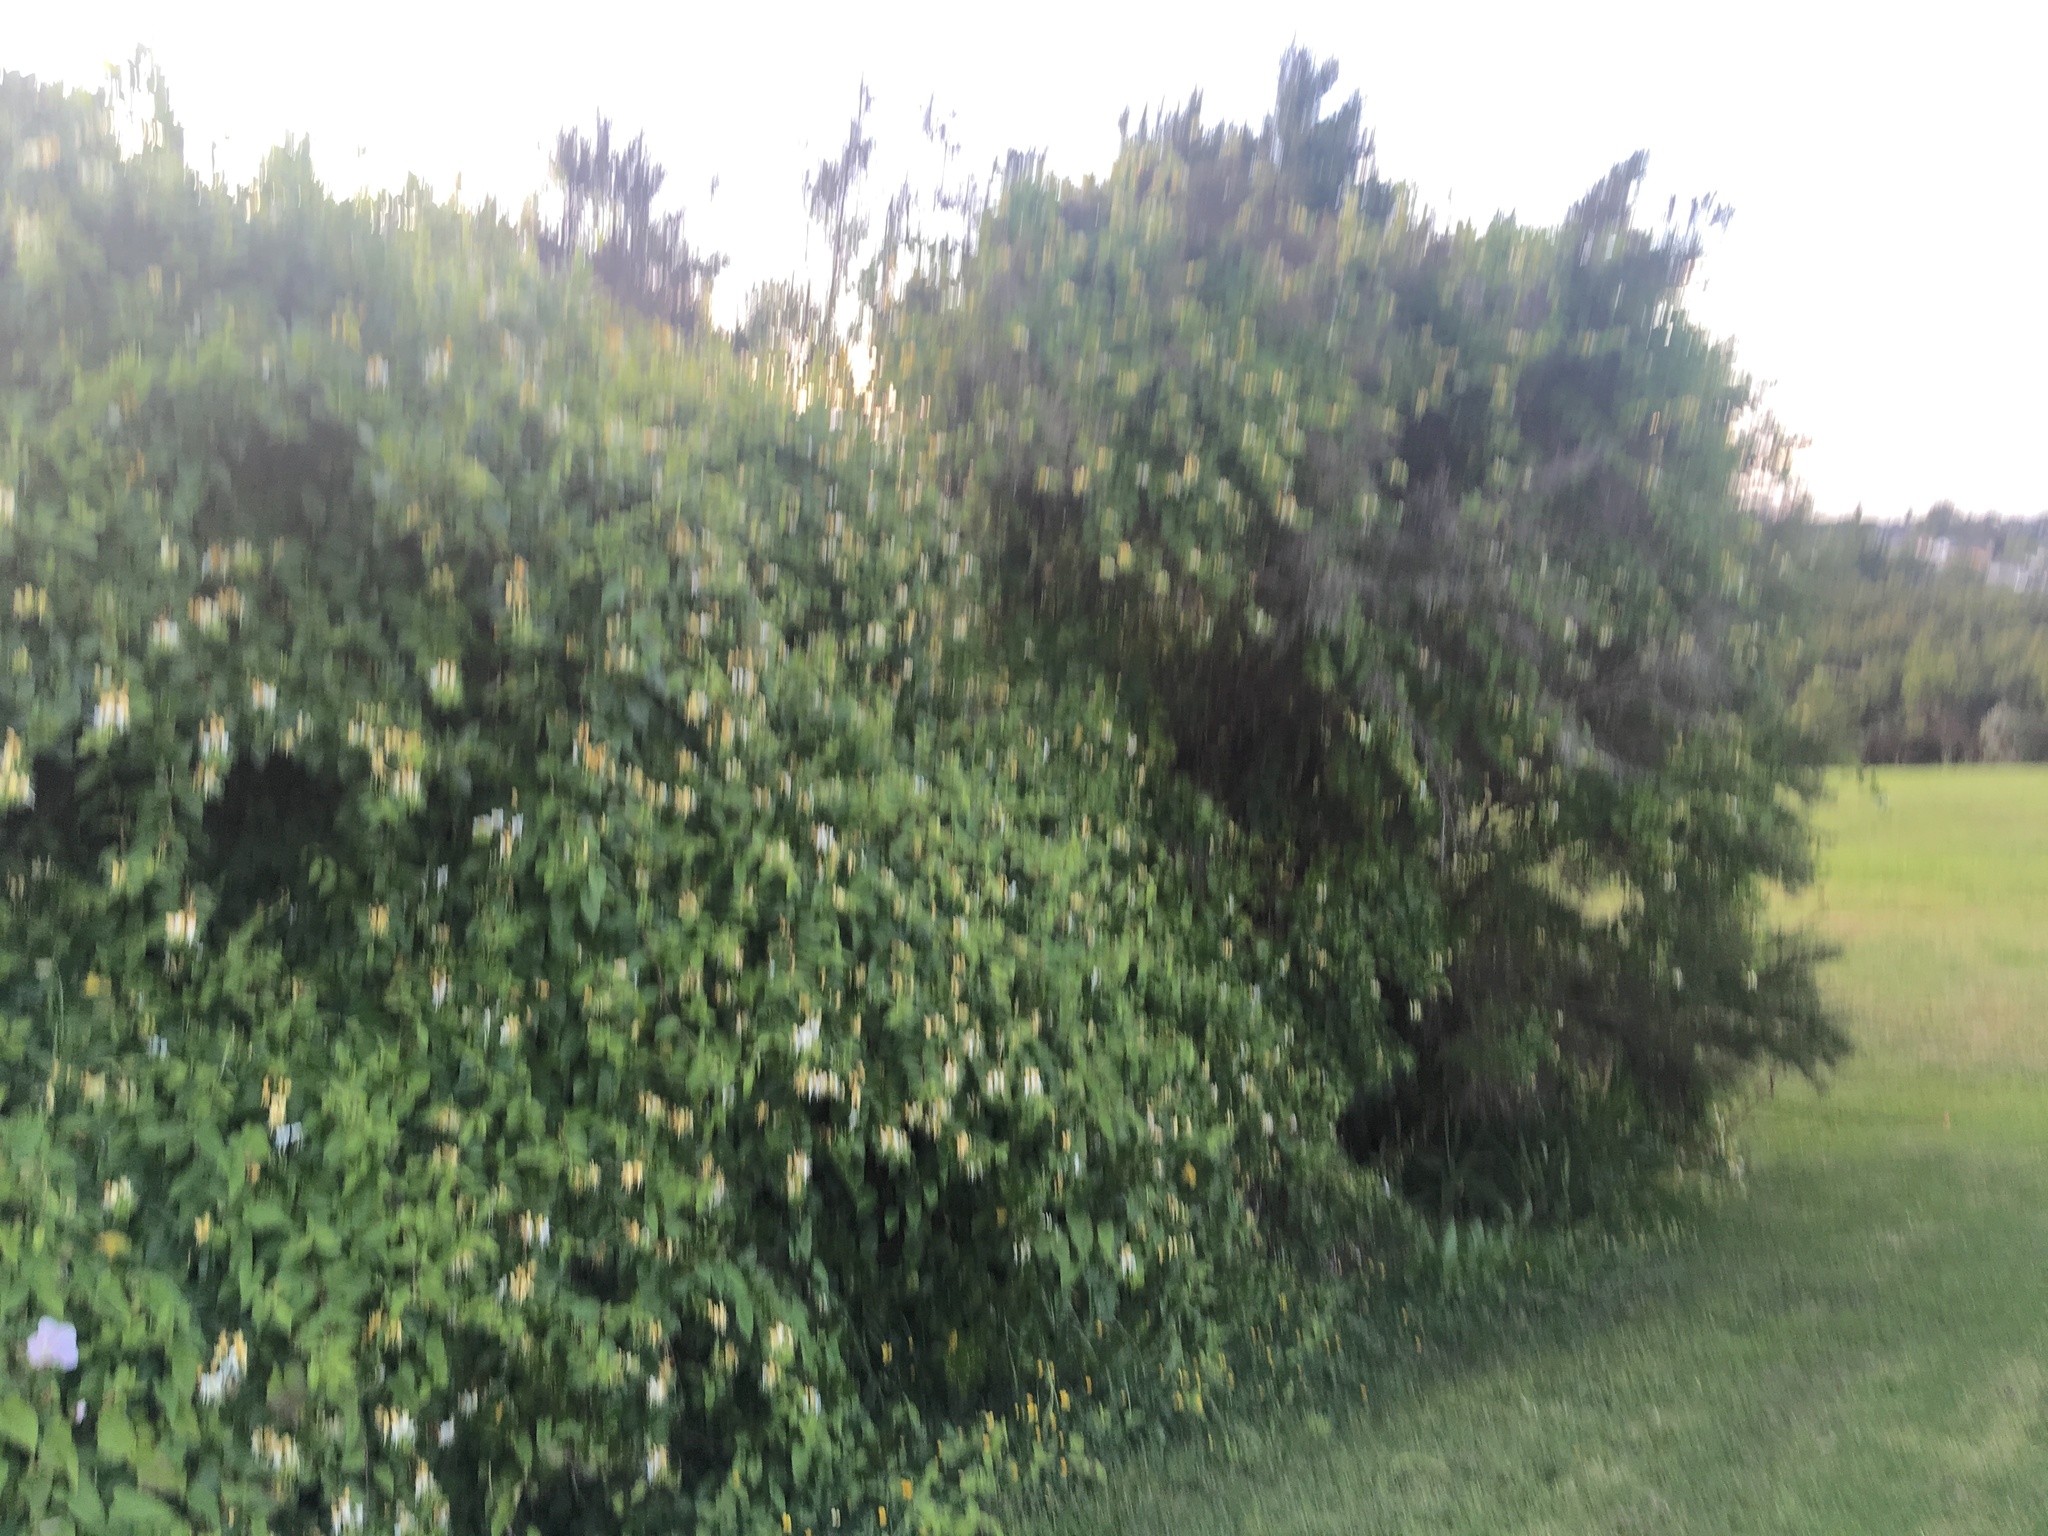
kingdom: Plantae
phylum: Tracheophyta
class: Magnoliopsida
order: Dipsacales
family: Caprifoliaceae
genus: Lonicera
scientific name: Lonicera japonica
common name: Japanese honeysuckle
